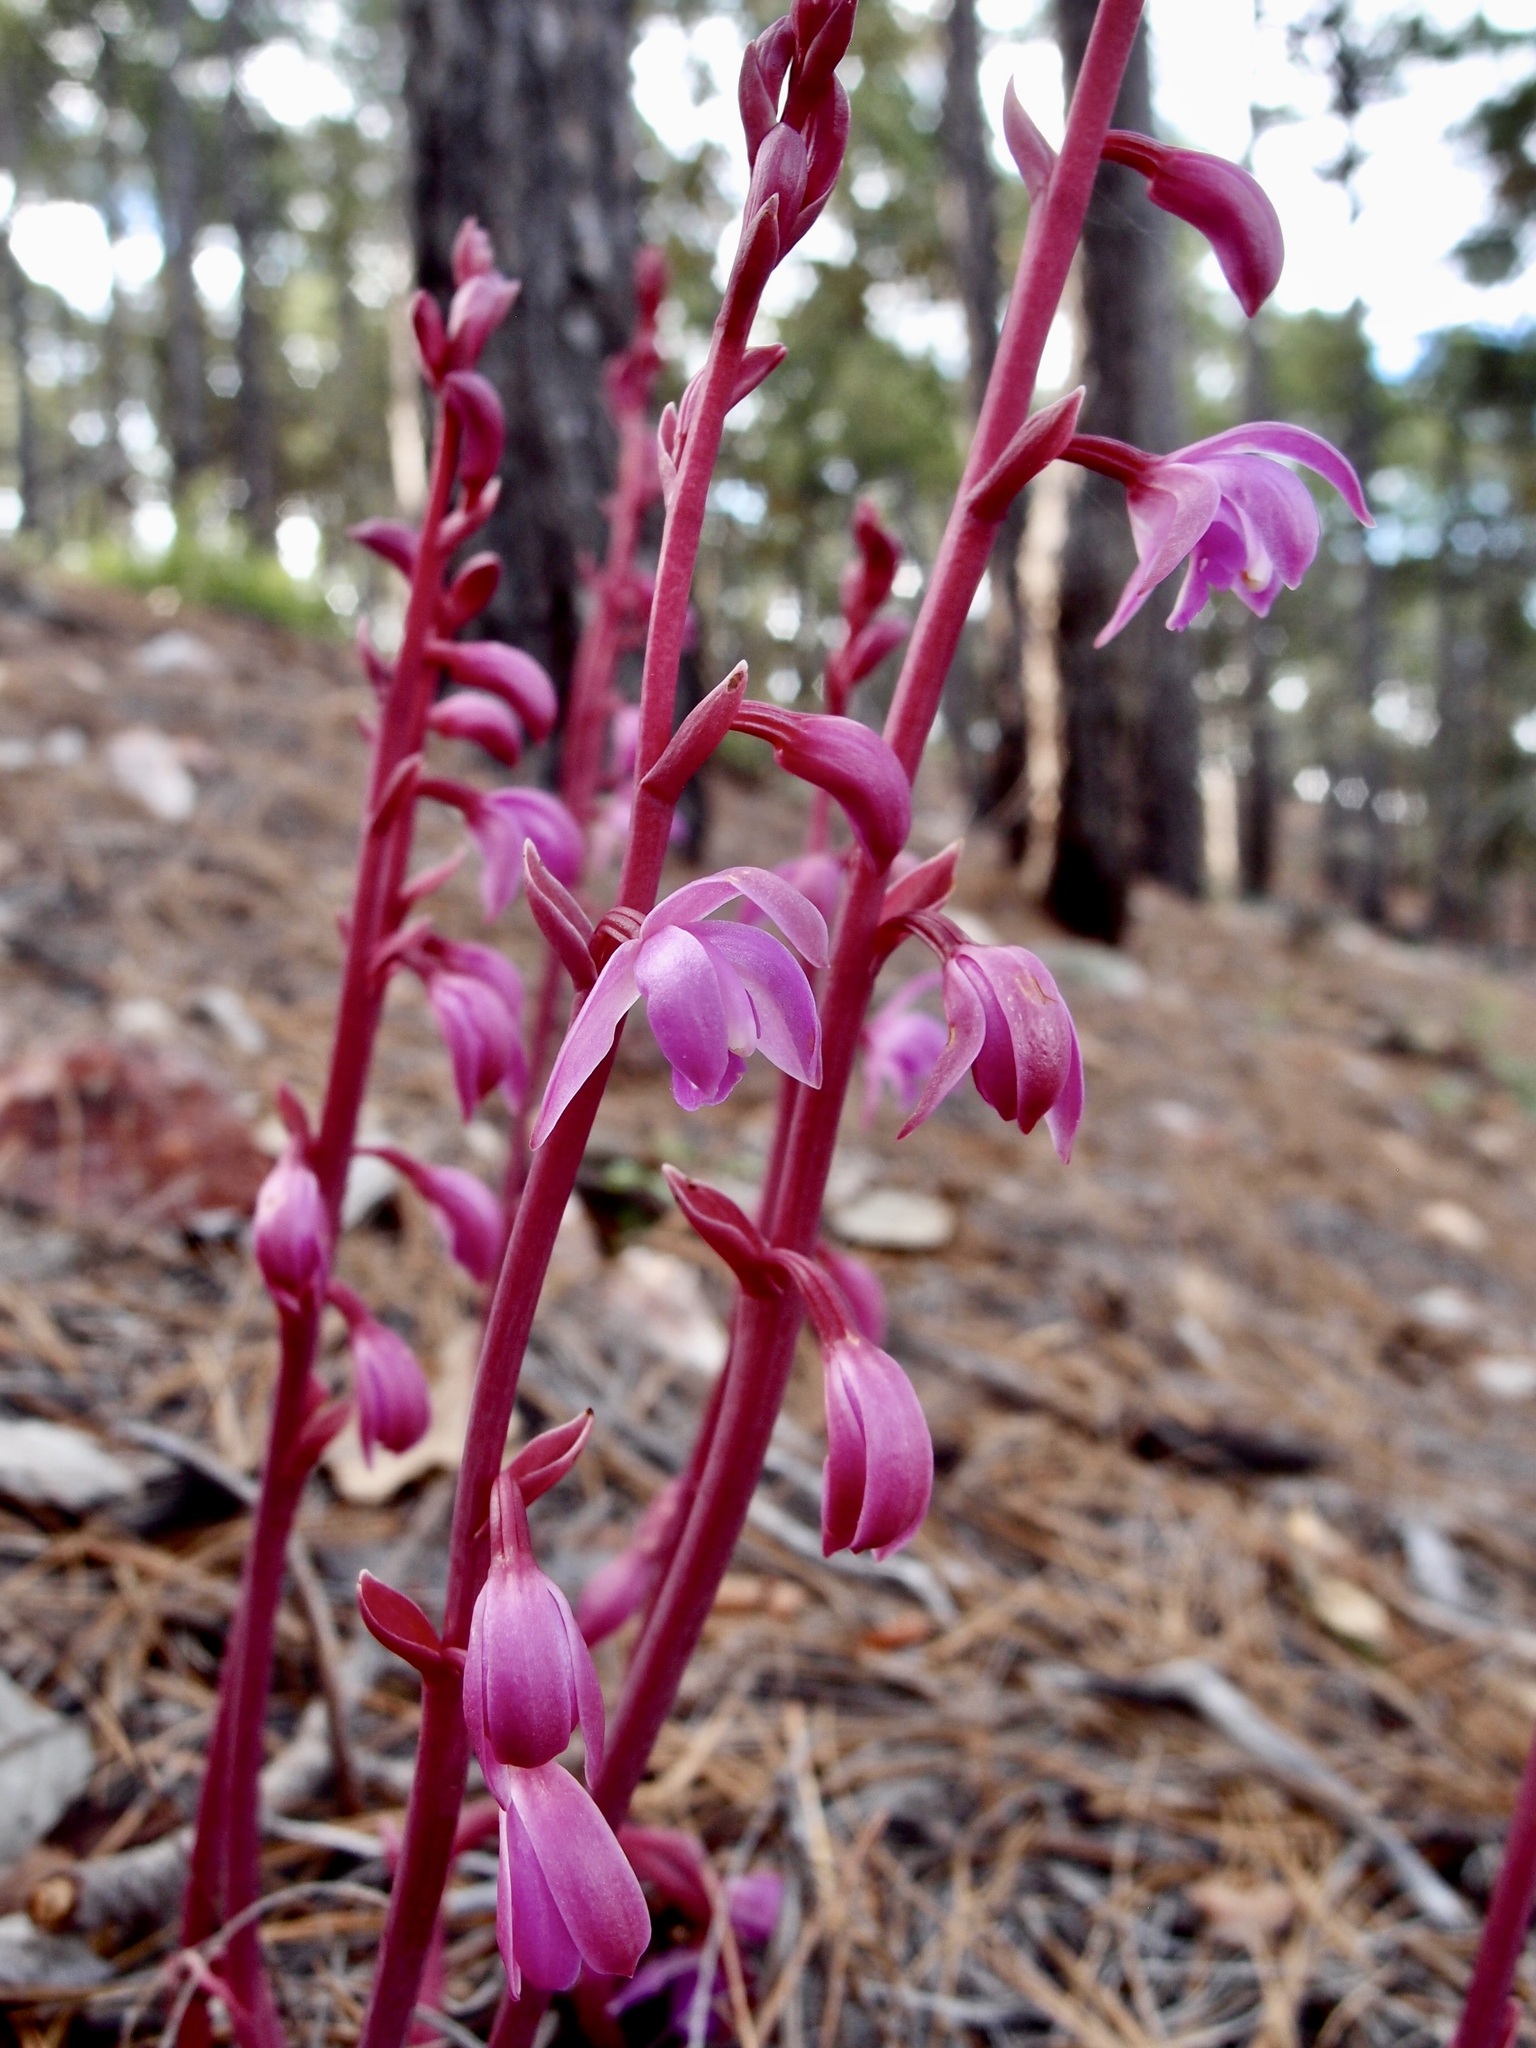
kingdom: Plantae
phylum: Tracheophyta
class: Liliopsida
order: Asparagales
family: Orchidaceae
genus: Bletia
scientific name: Bletia mexicana
